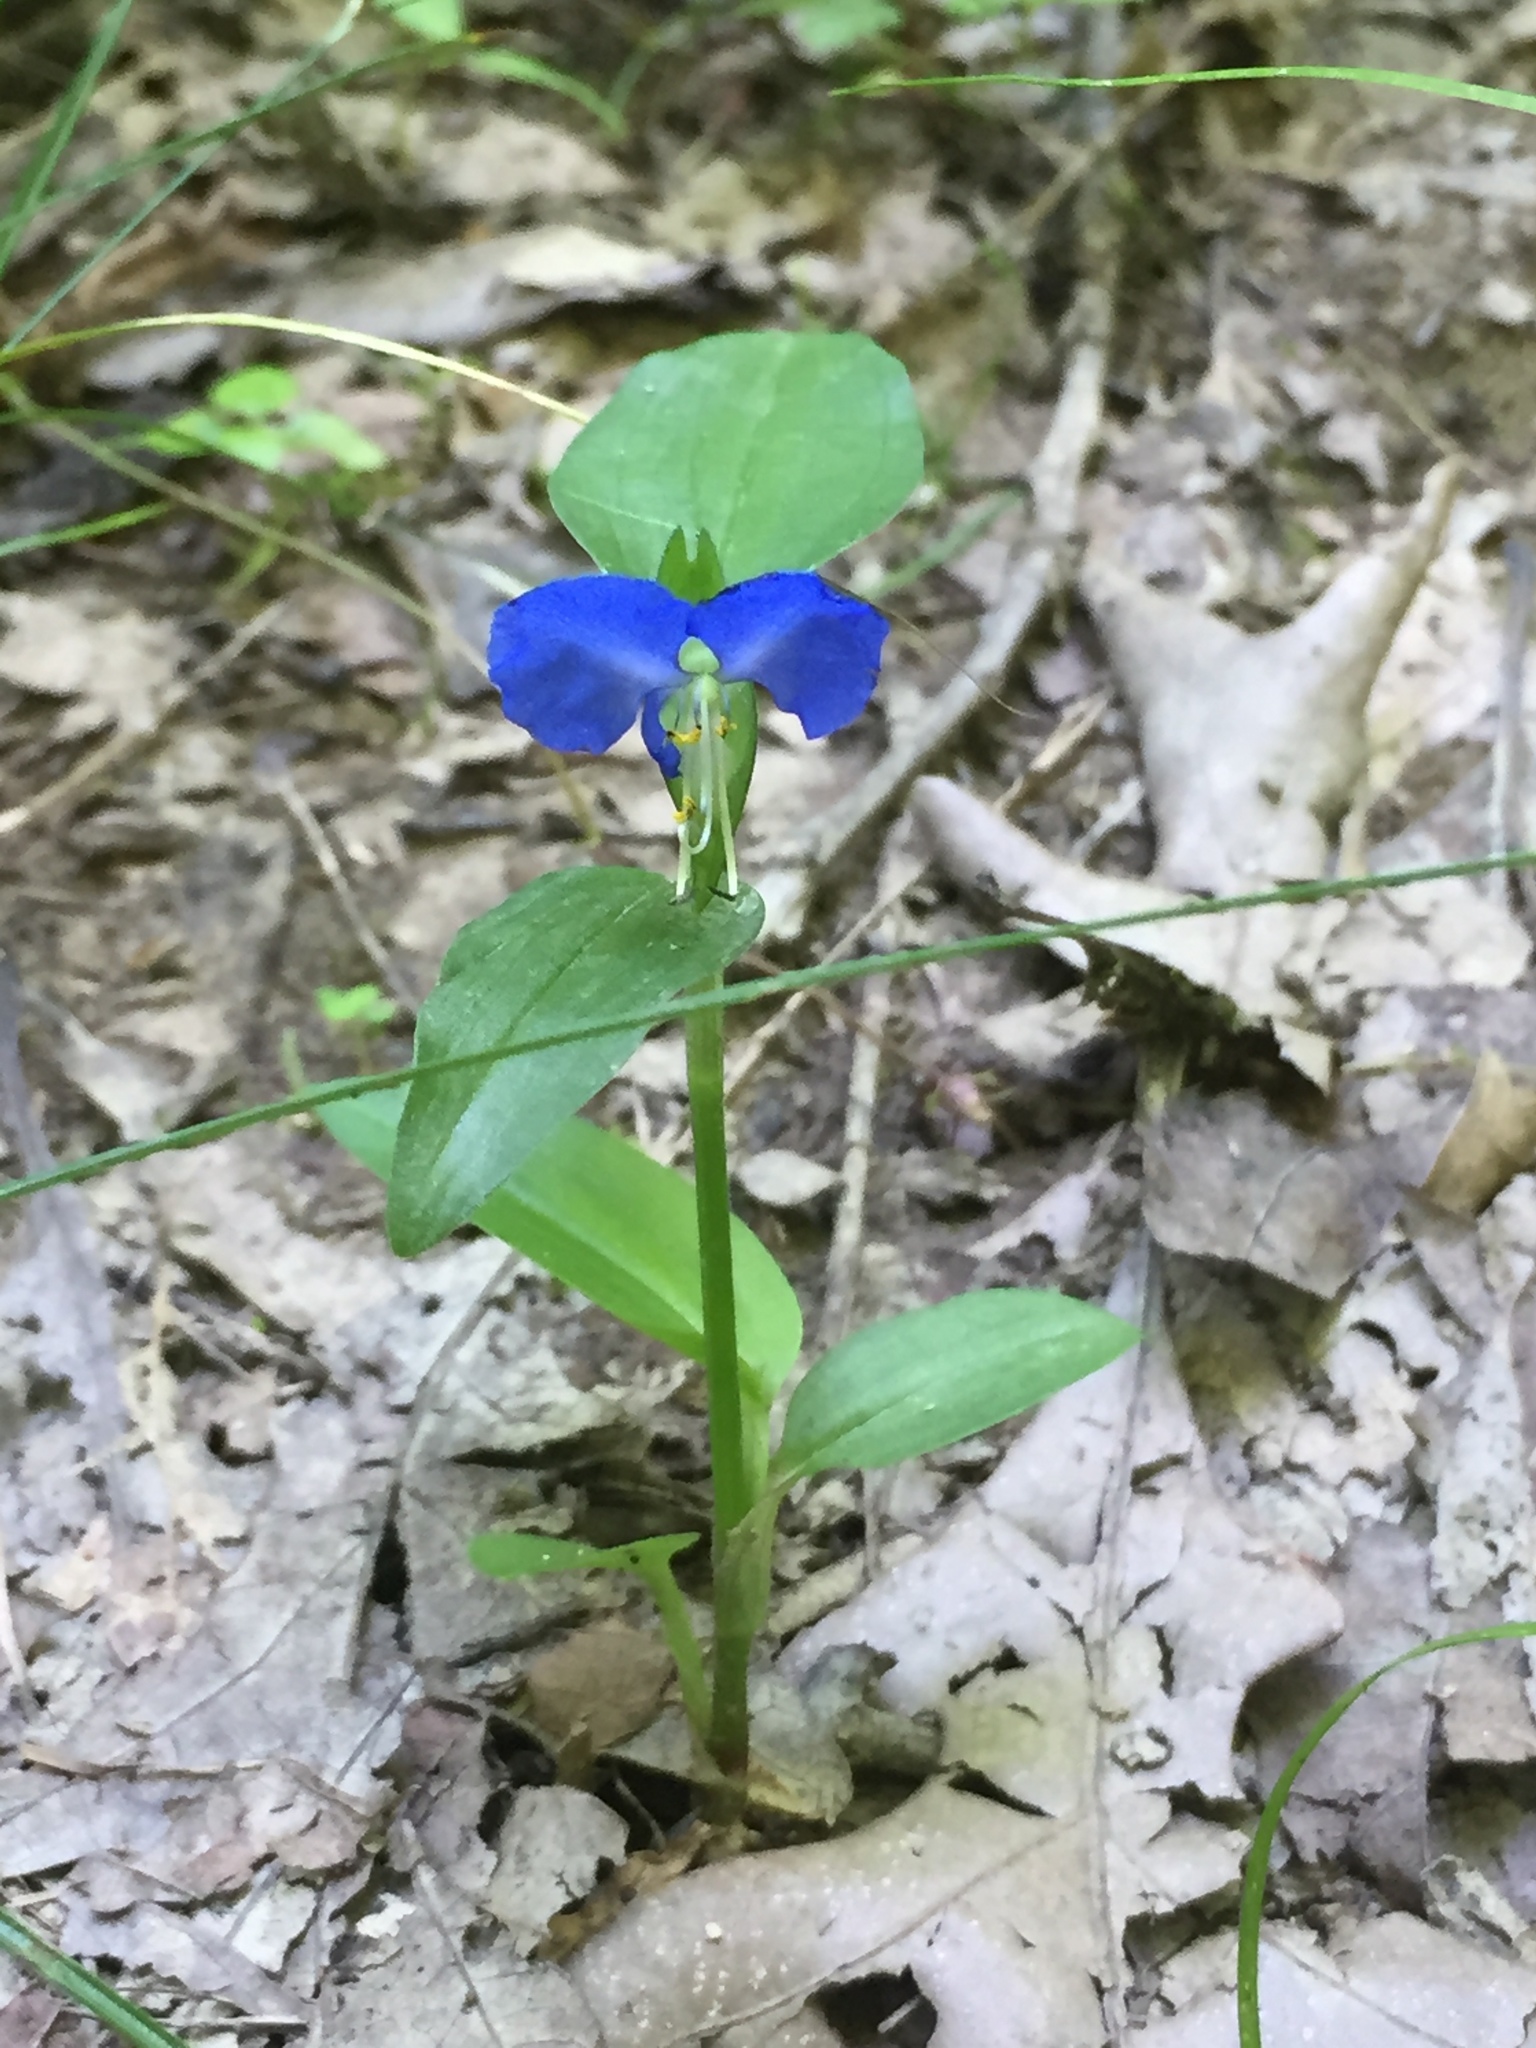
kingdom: Plantae
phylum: Tracheophyta
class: Liliopsida
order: Commelinales
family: Commelinaceae
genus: Commelina
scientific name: Commelina communis
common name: Asiatic dayflower
